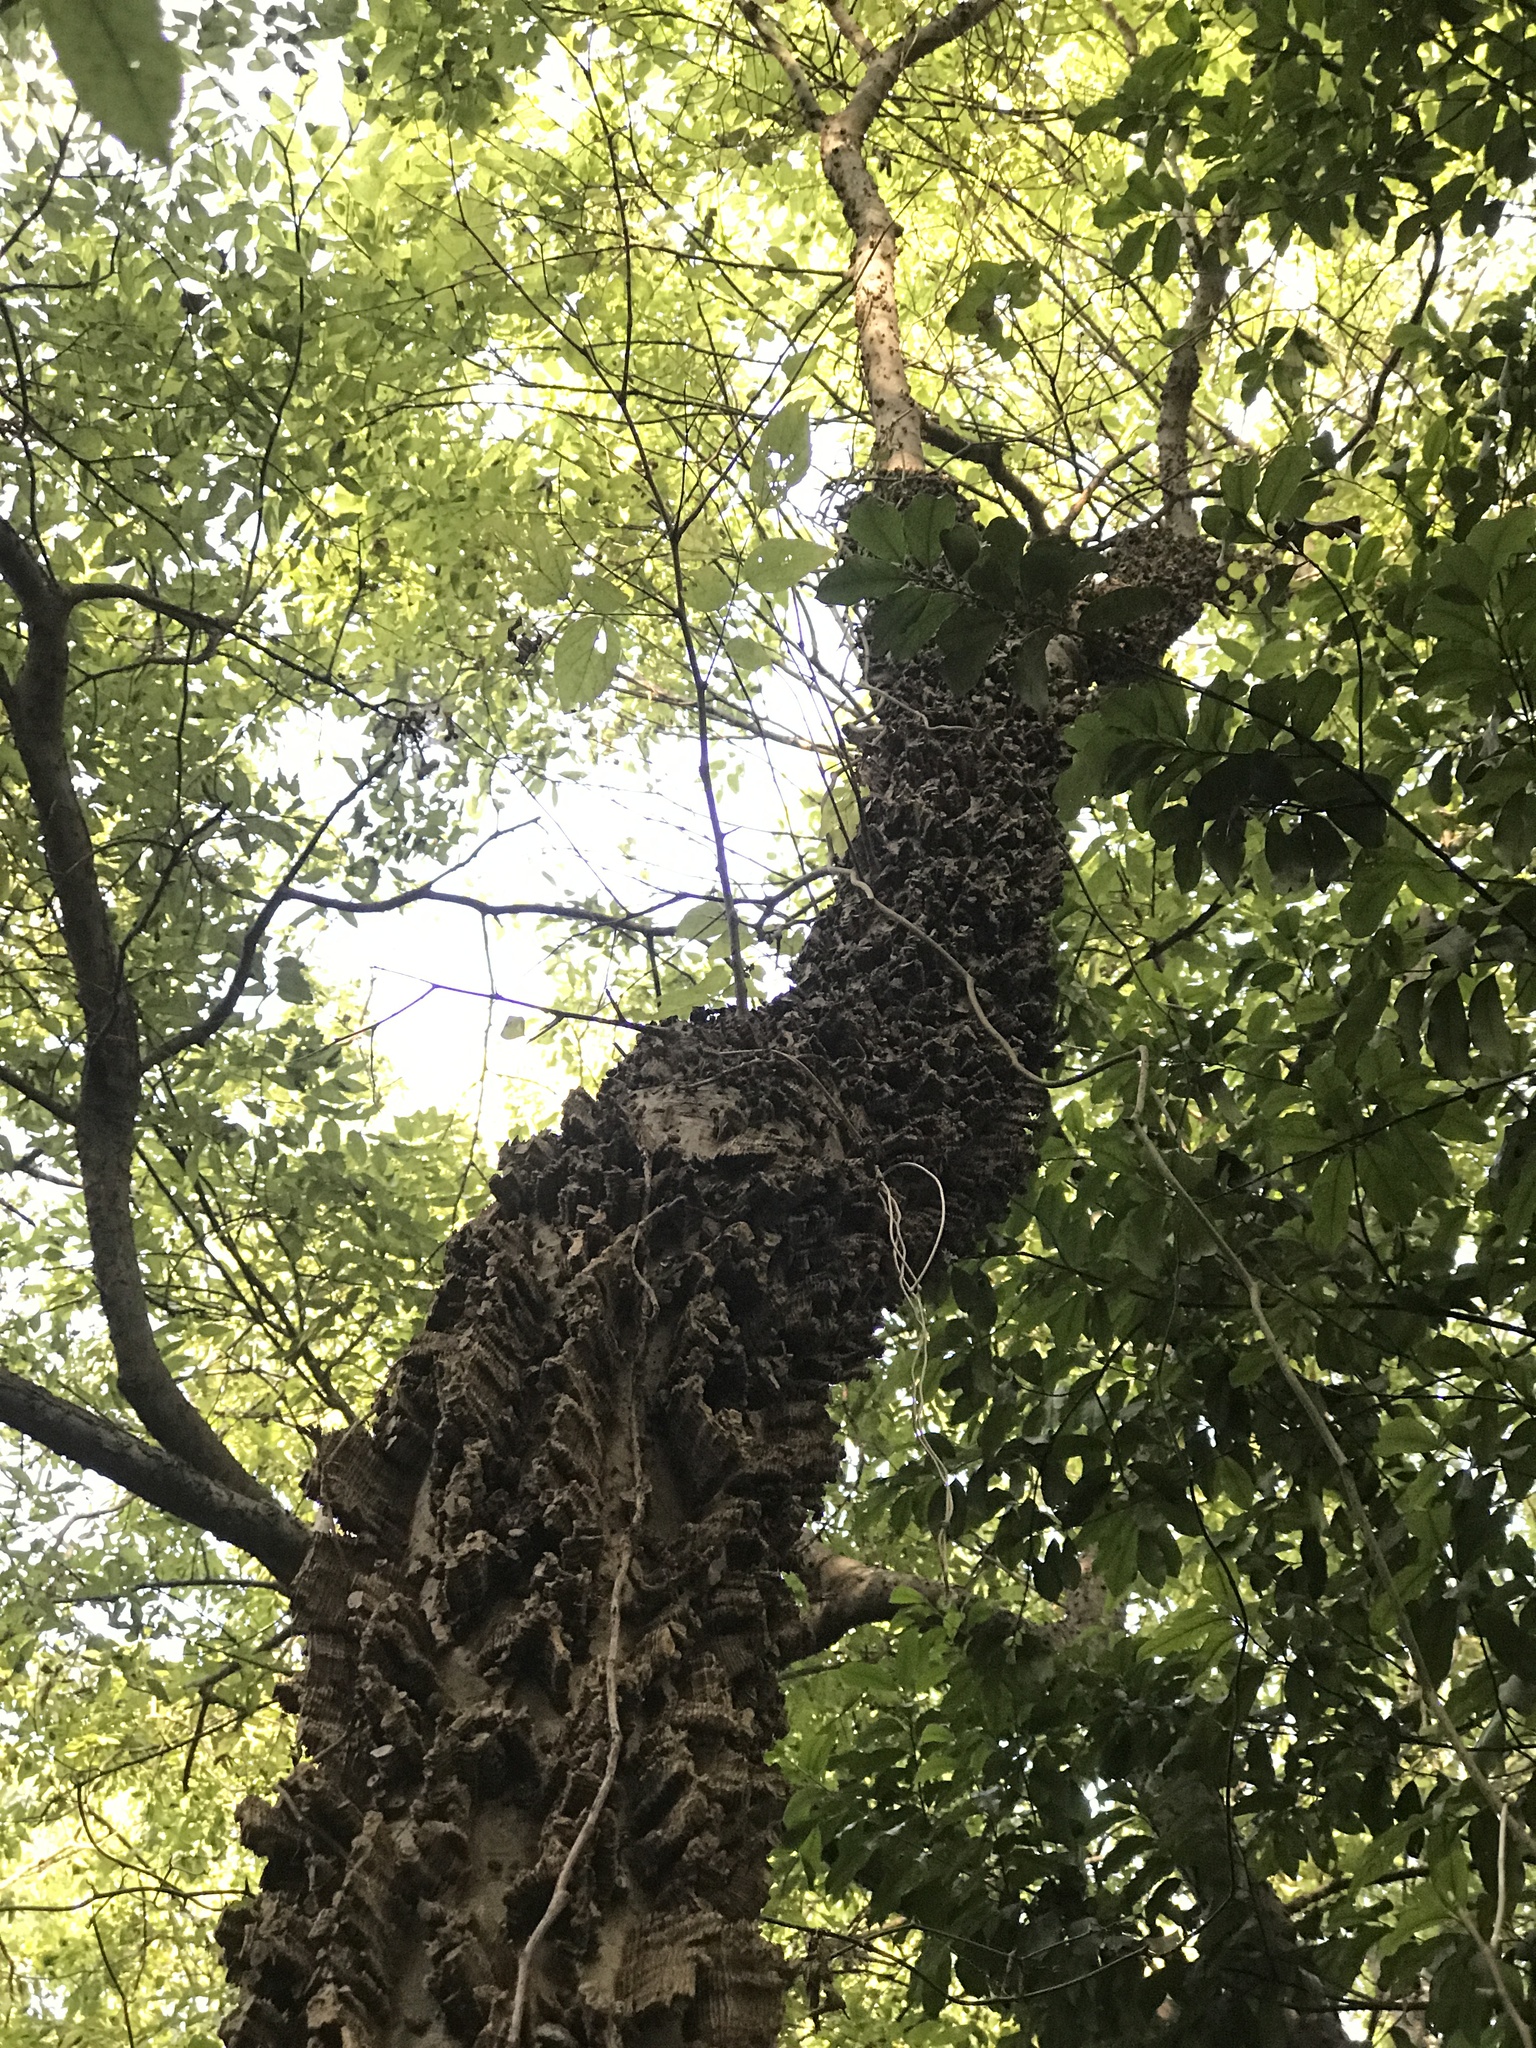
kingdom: Plantae
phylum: Tracheophyta
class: Magnoliopsida
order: Rosales
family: Cannabaceae
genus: Celtis
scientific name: Celtis laevigata
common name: Sugarberry
